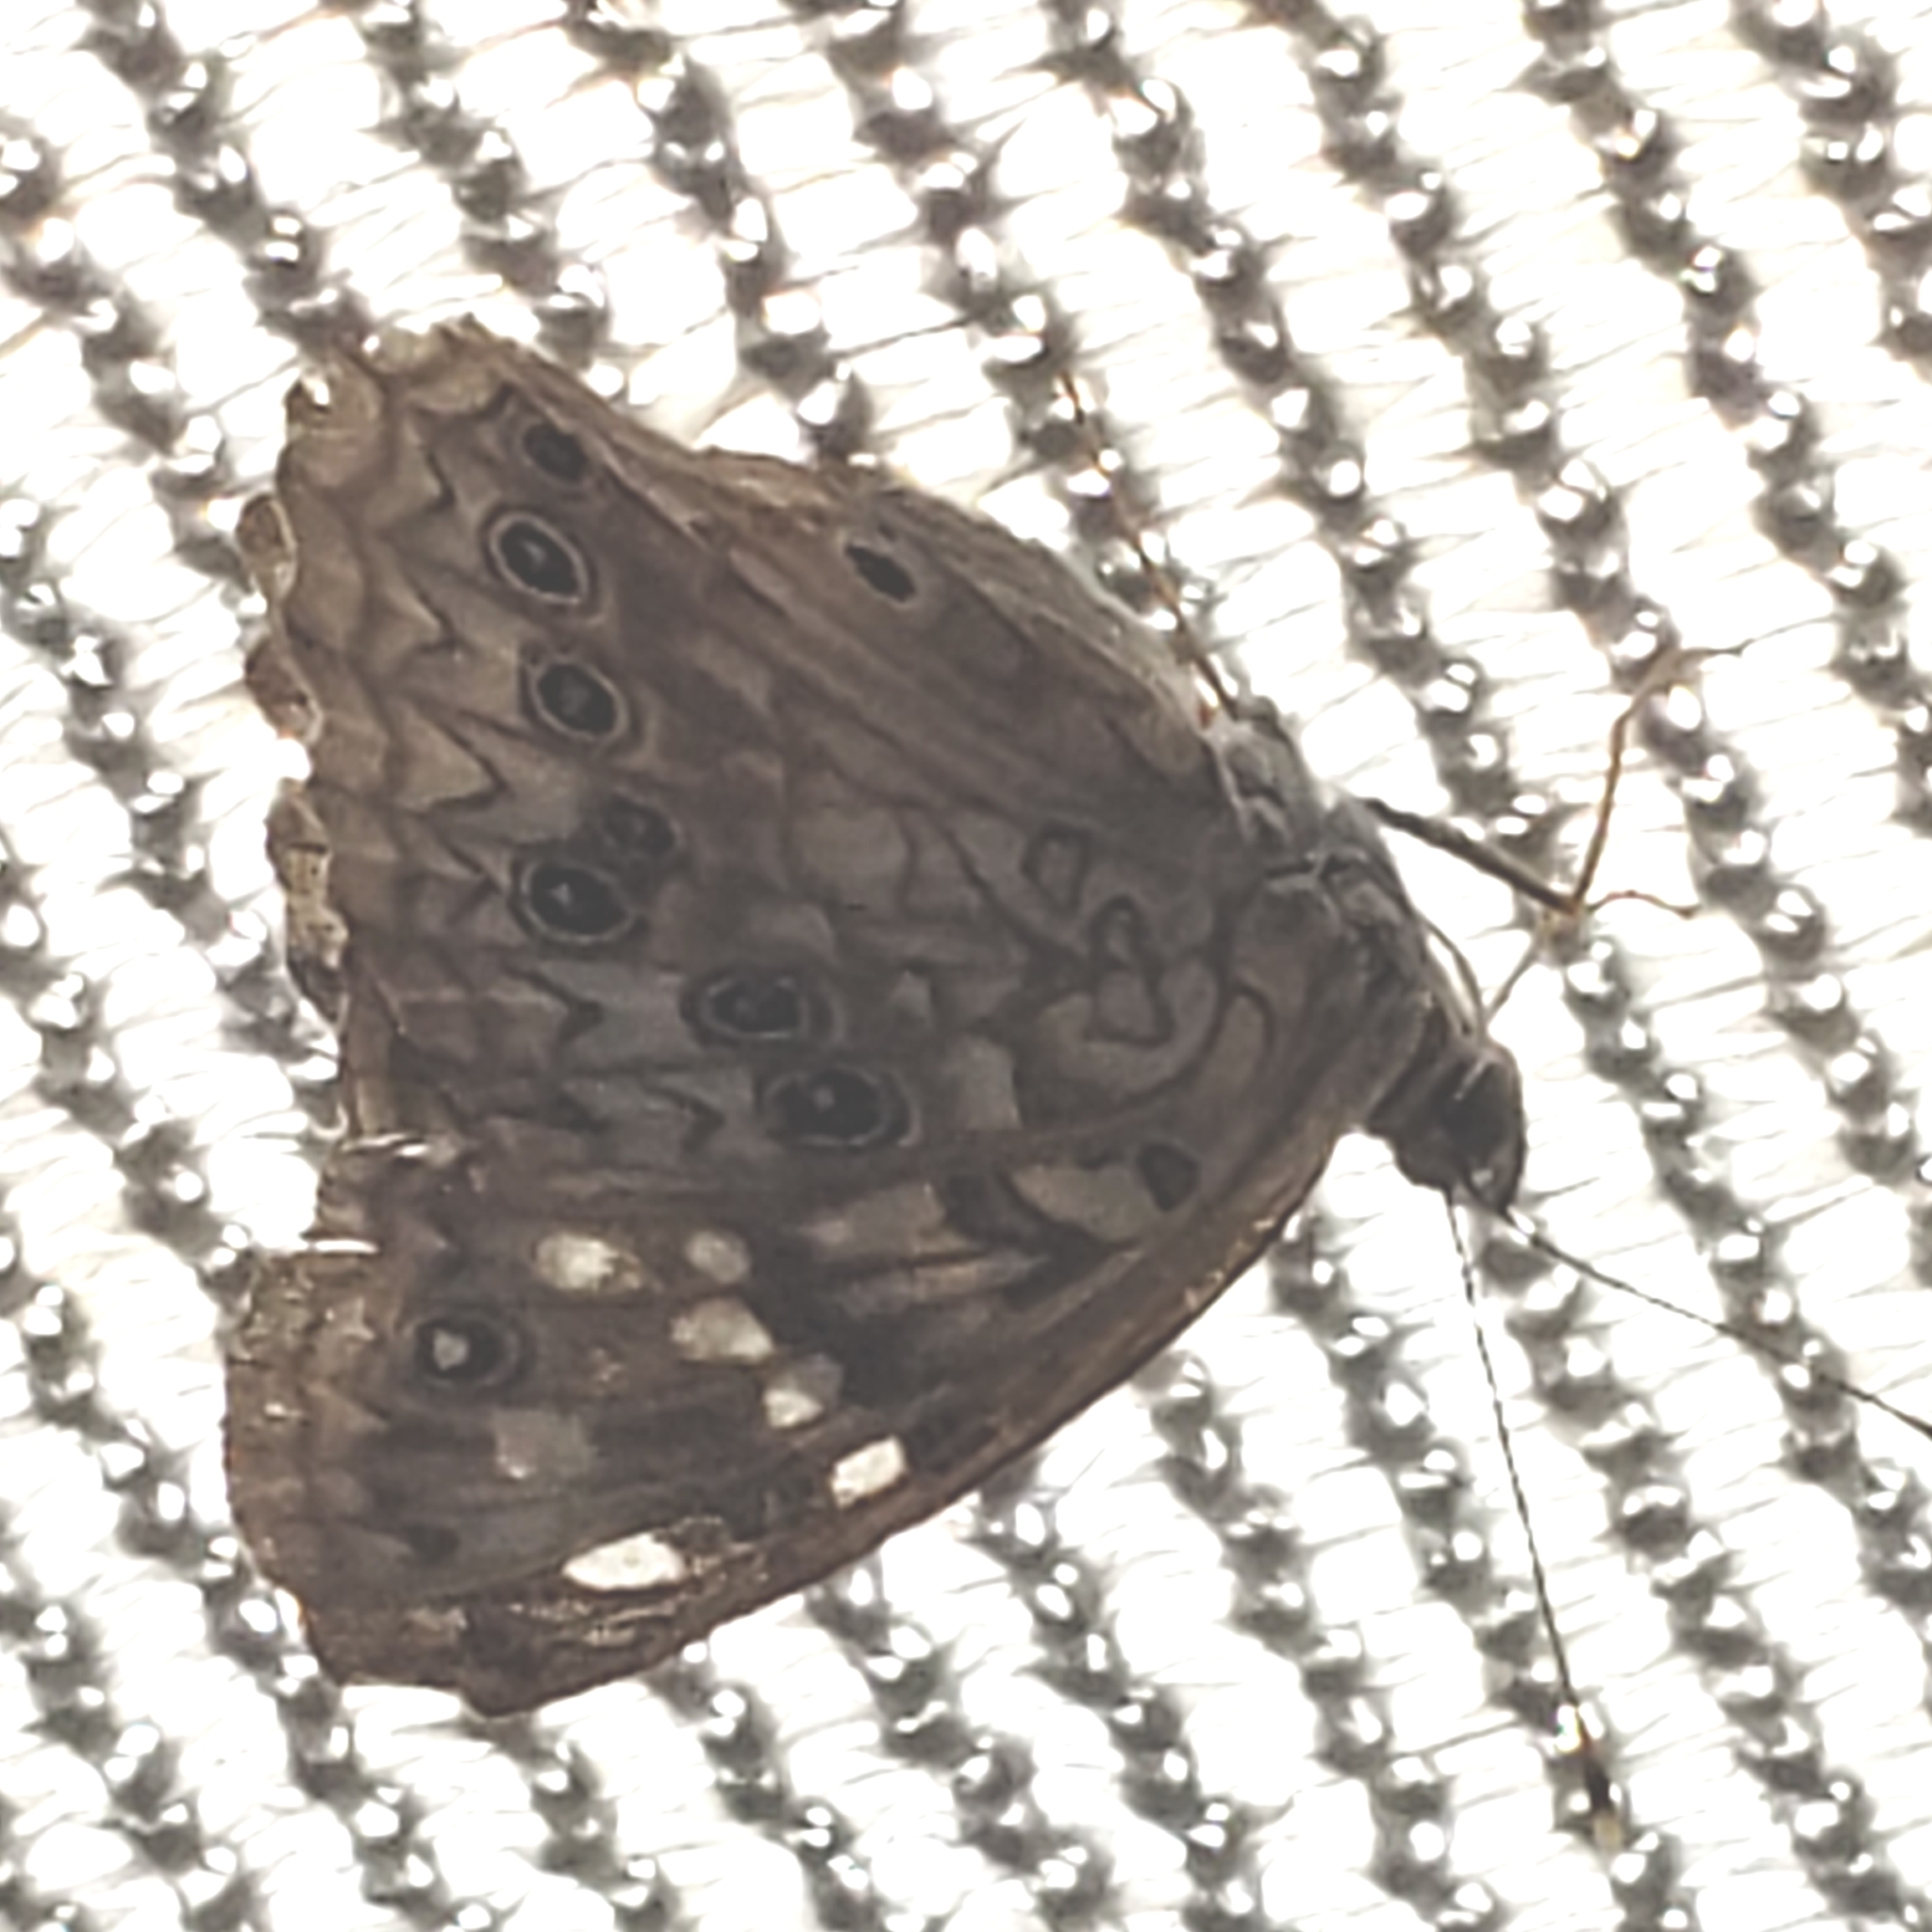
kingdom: Animalia
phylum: Arthropoda
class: Insecta
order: Lepidoptera
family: Nymphalidae
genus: Asterocampa
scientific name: Asterocampa celtis
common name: Hackberry emperor
